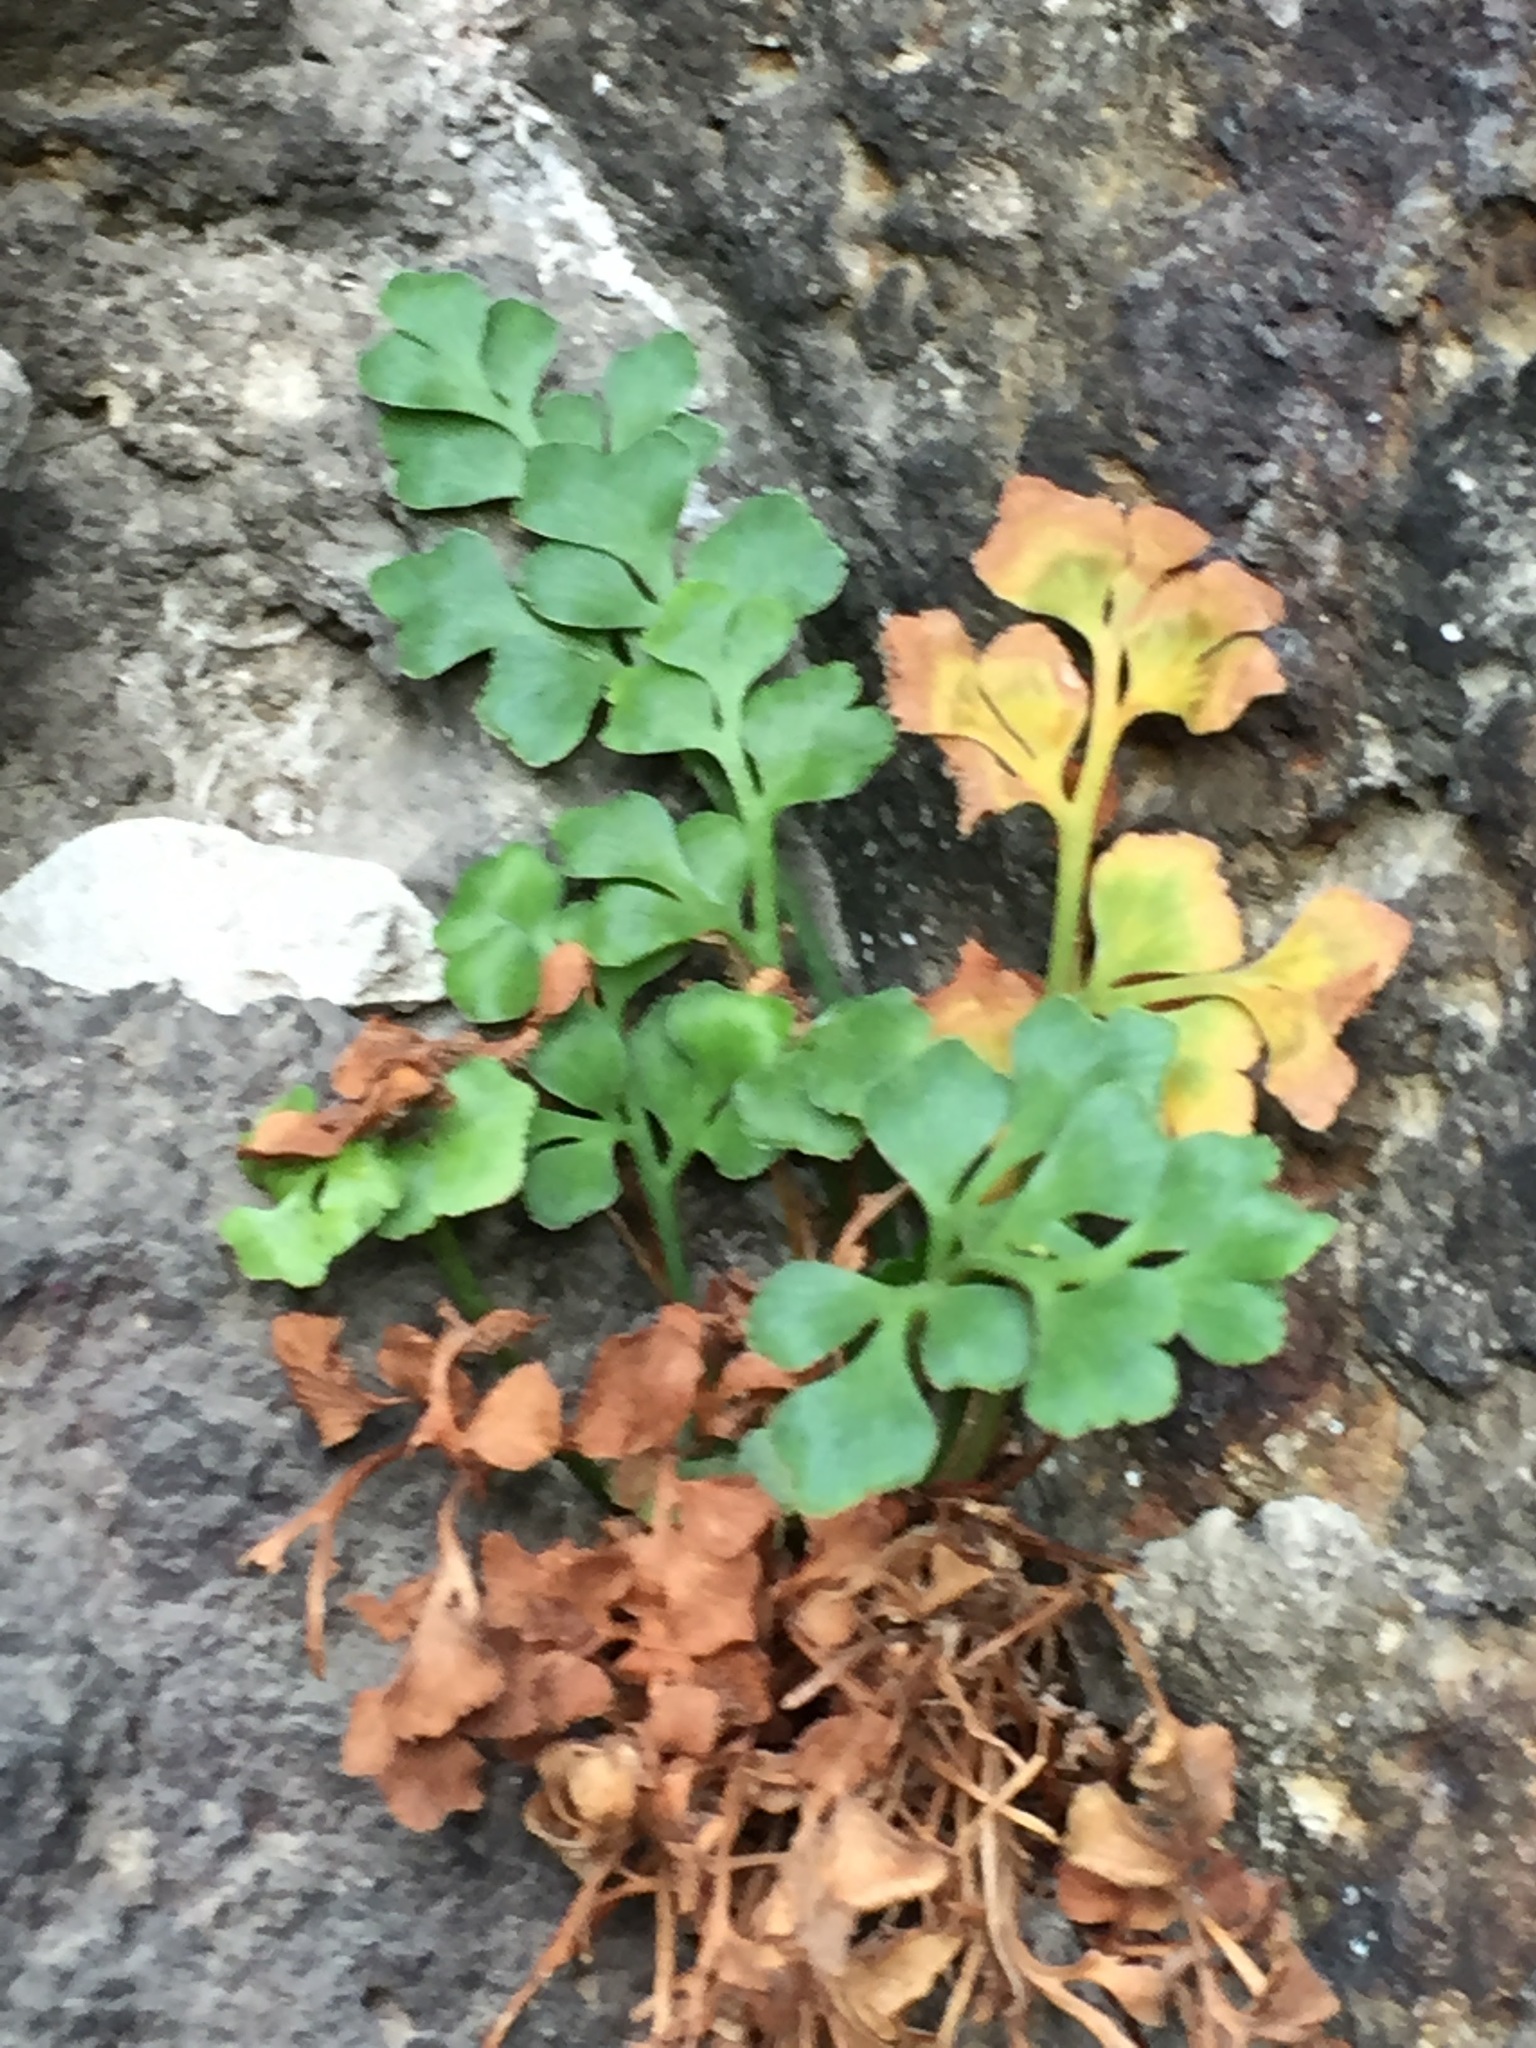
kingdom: Plantae
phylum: Tracheophyta
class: Polypodiopsida
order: Polypodiales
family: Aspleniaceae
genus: Asplenium
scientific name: Asplenium ruta-muraria
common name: Wall-rue
